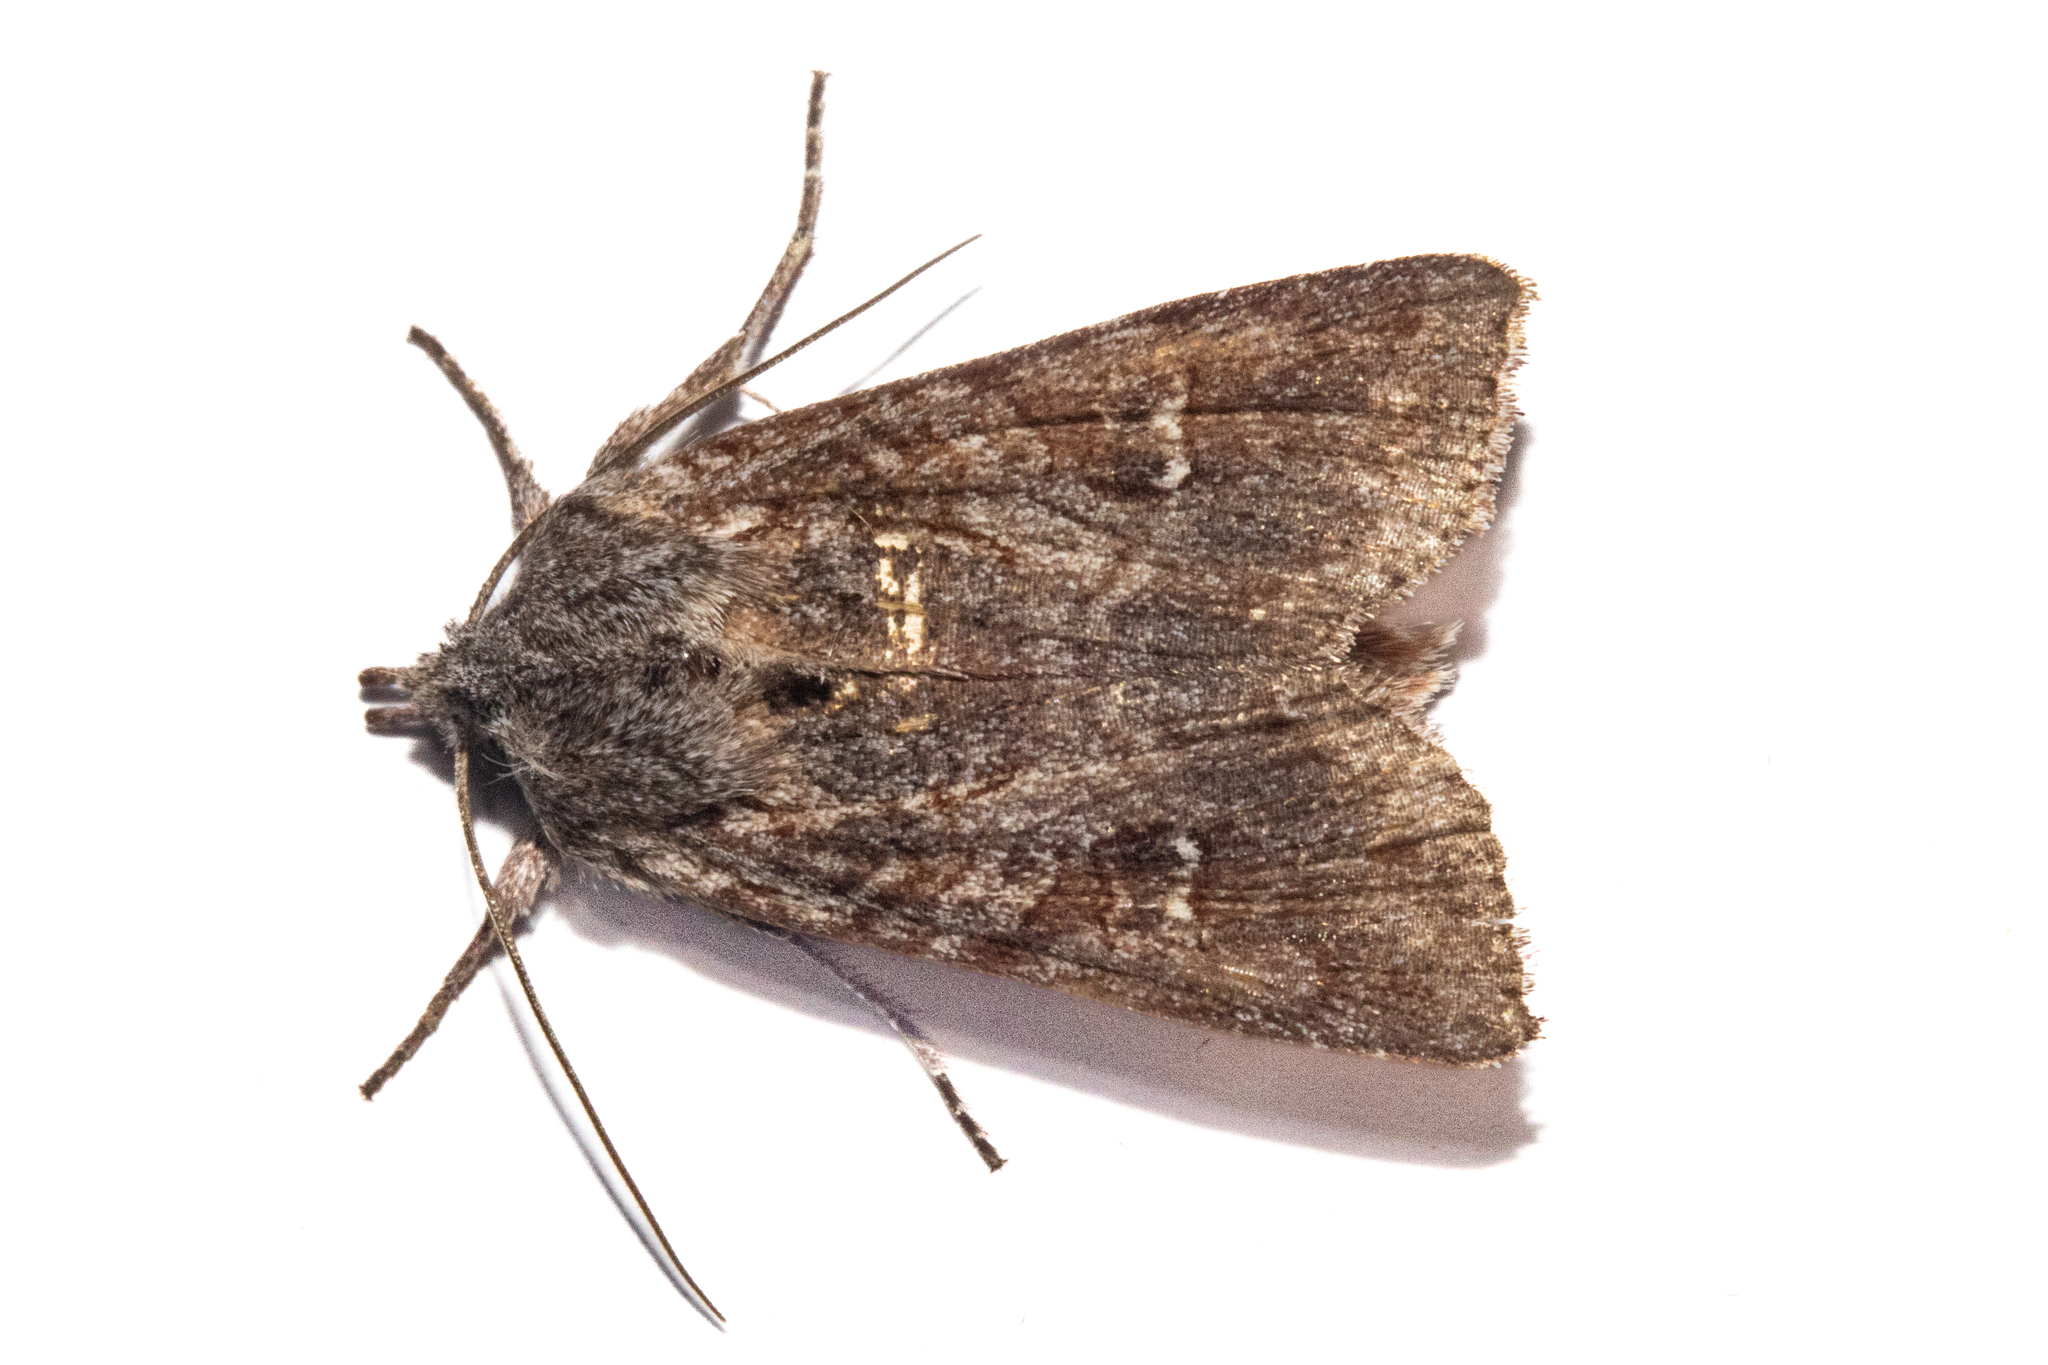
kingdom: Animalia
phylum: Arthropoda
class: Insecta
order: Lepidoptera
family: Noctuidae
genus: Physetica
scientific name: Physetica longstaffii
